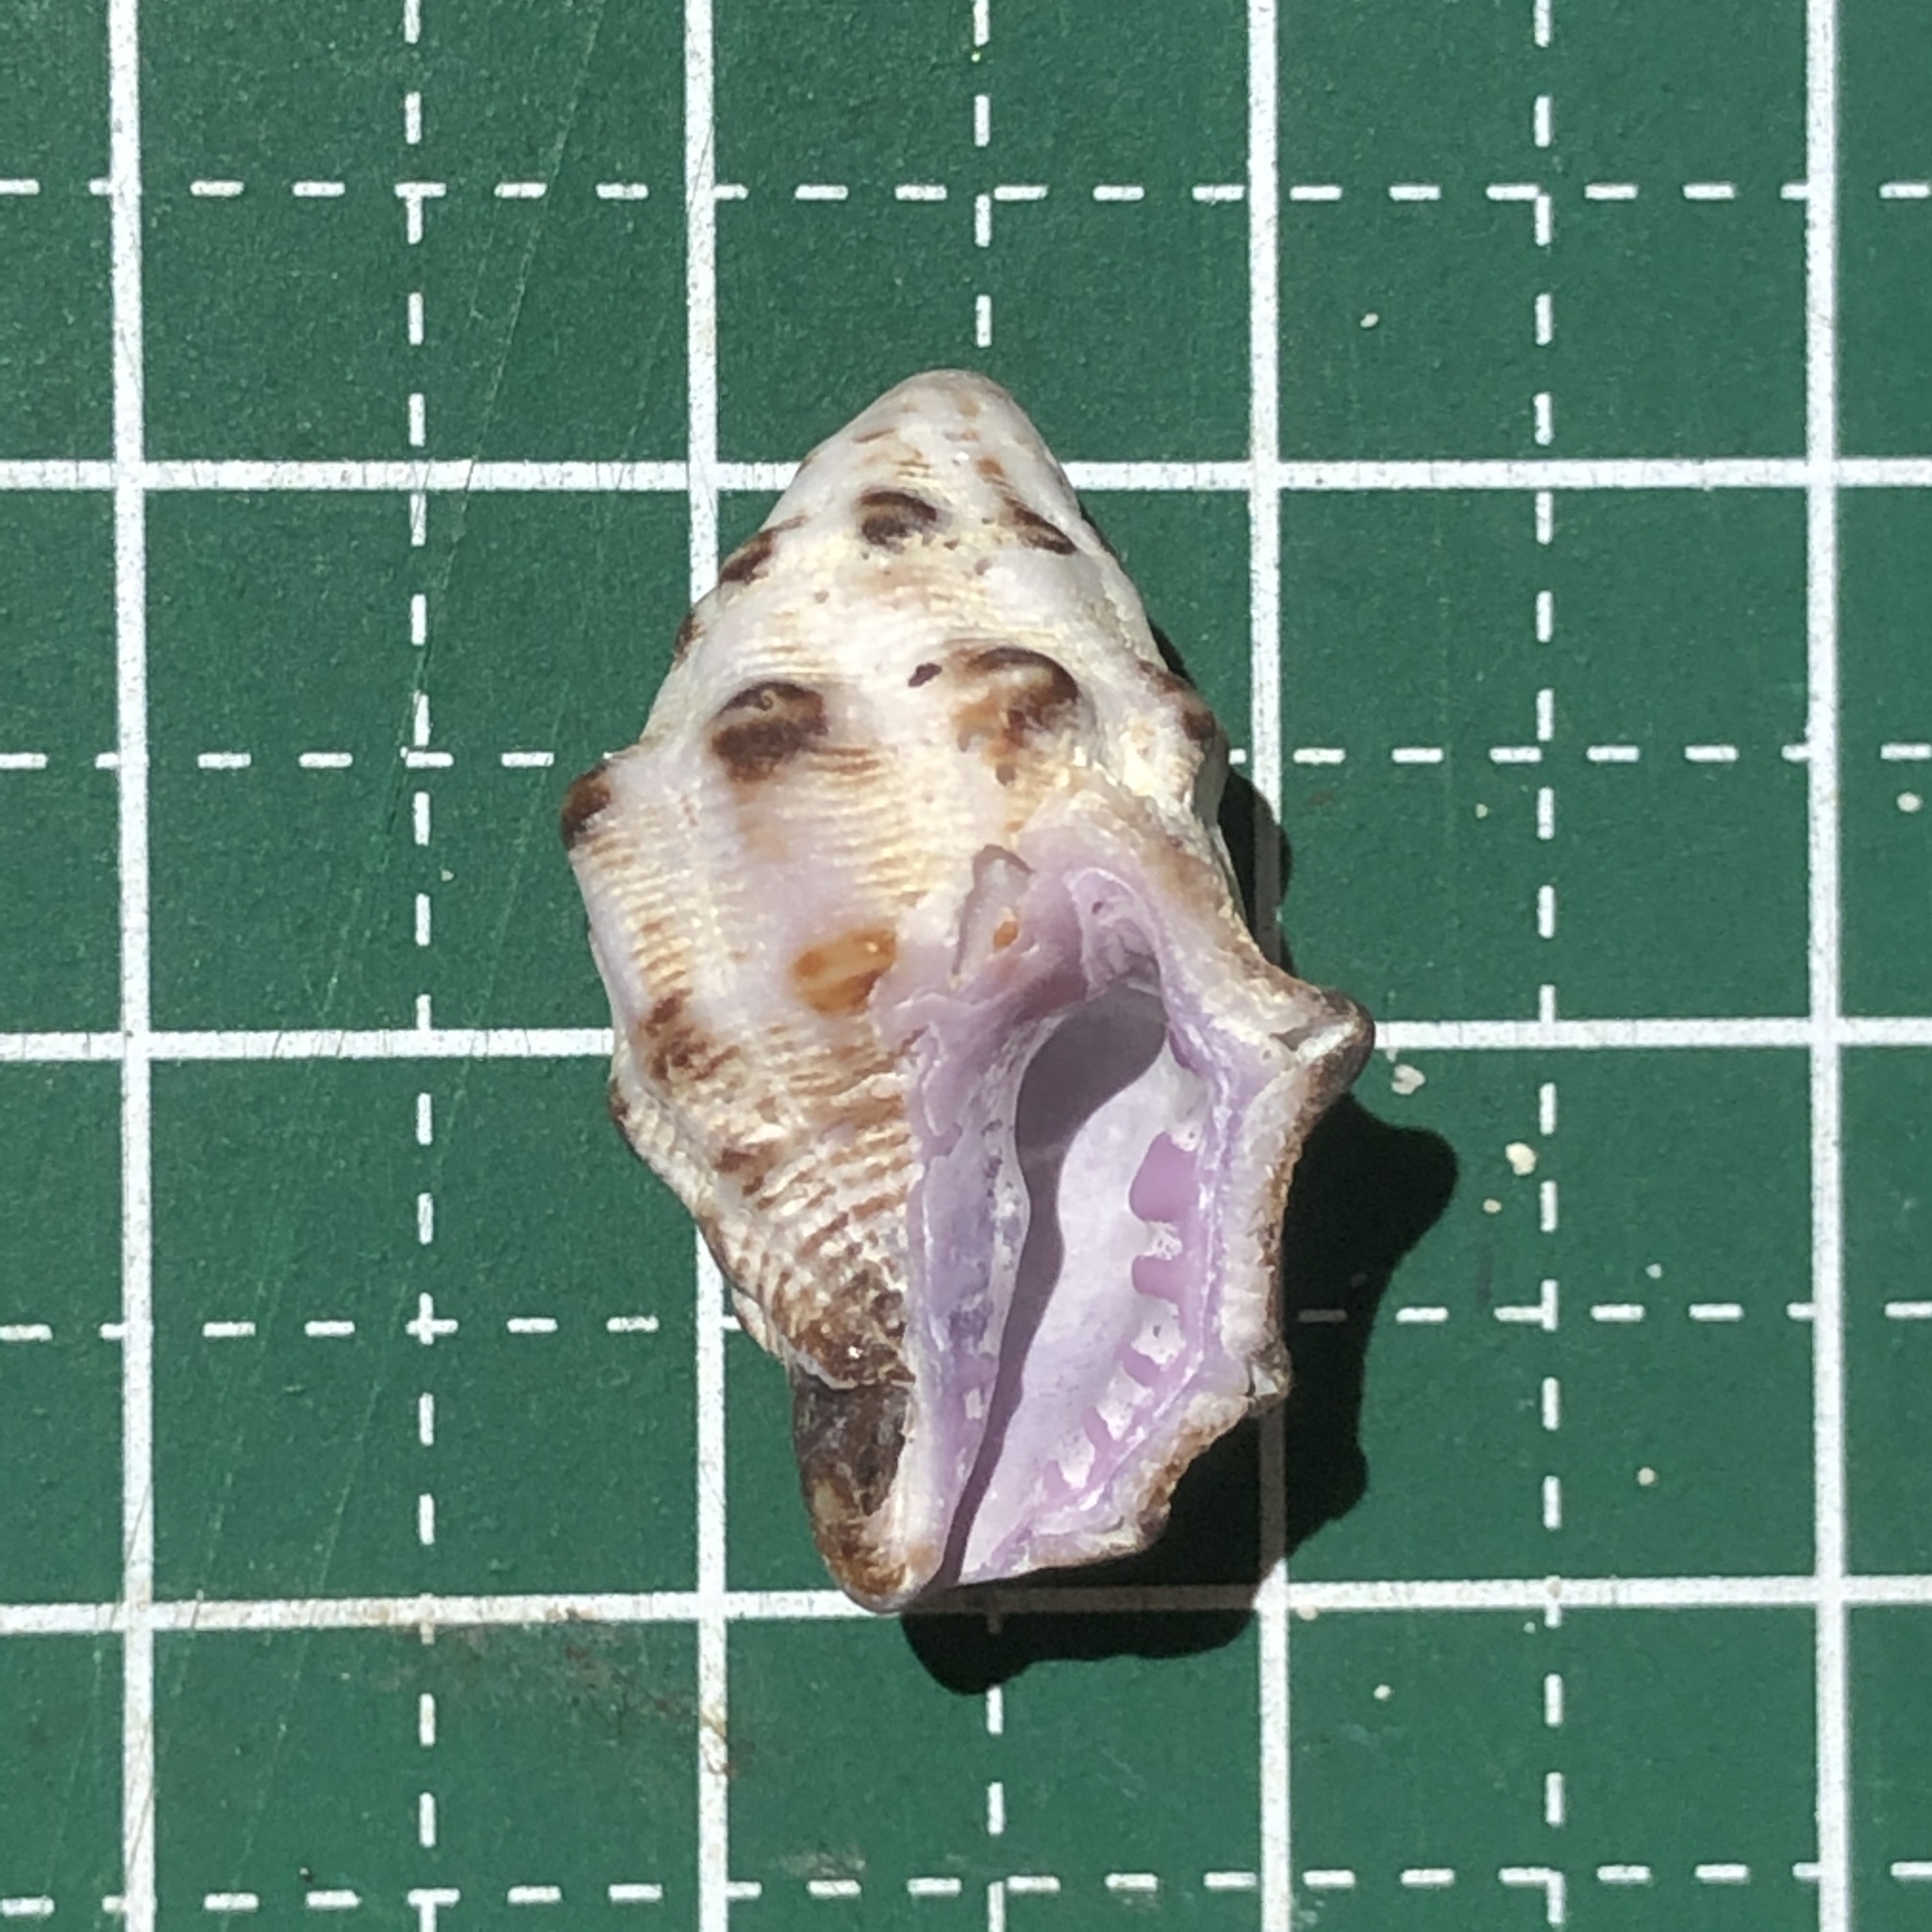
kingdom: Animalia
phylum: Mollusca
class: Gastropoda
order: Neogastropoda
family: Muricidae
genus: Morula
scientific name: Morula spinosa
